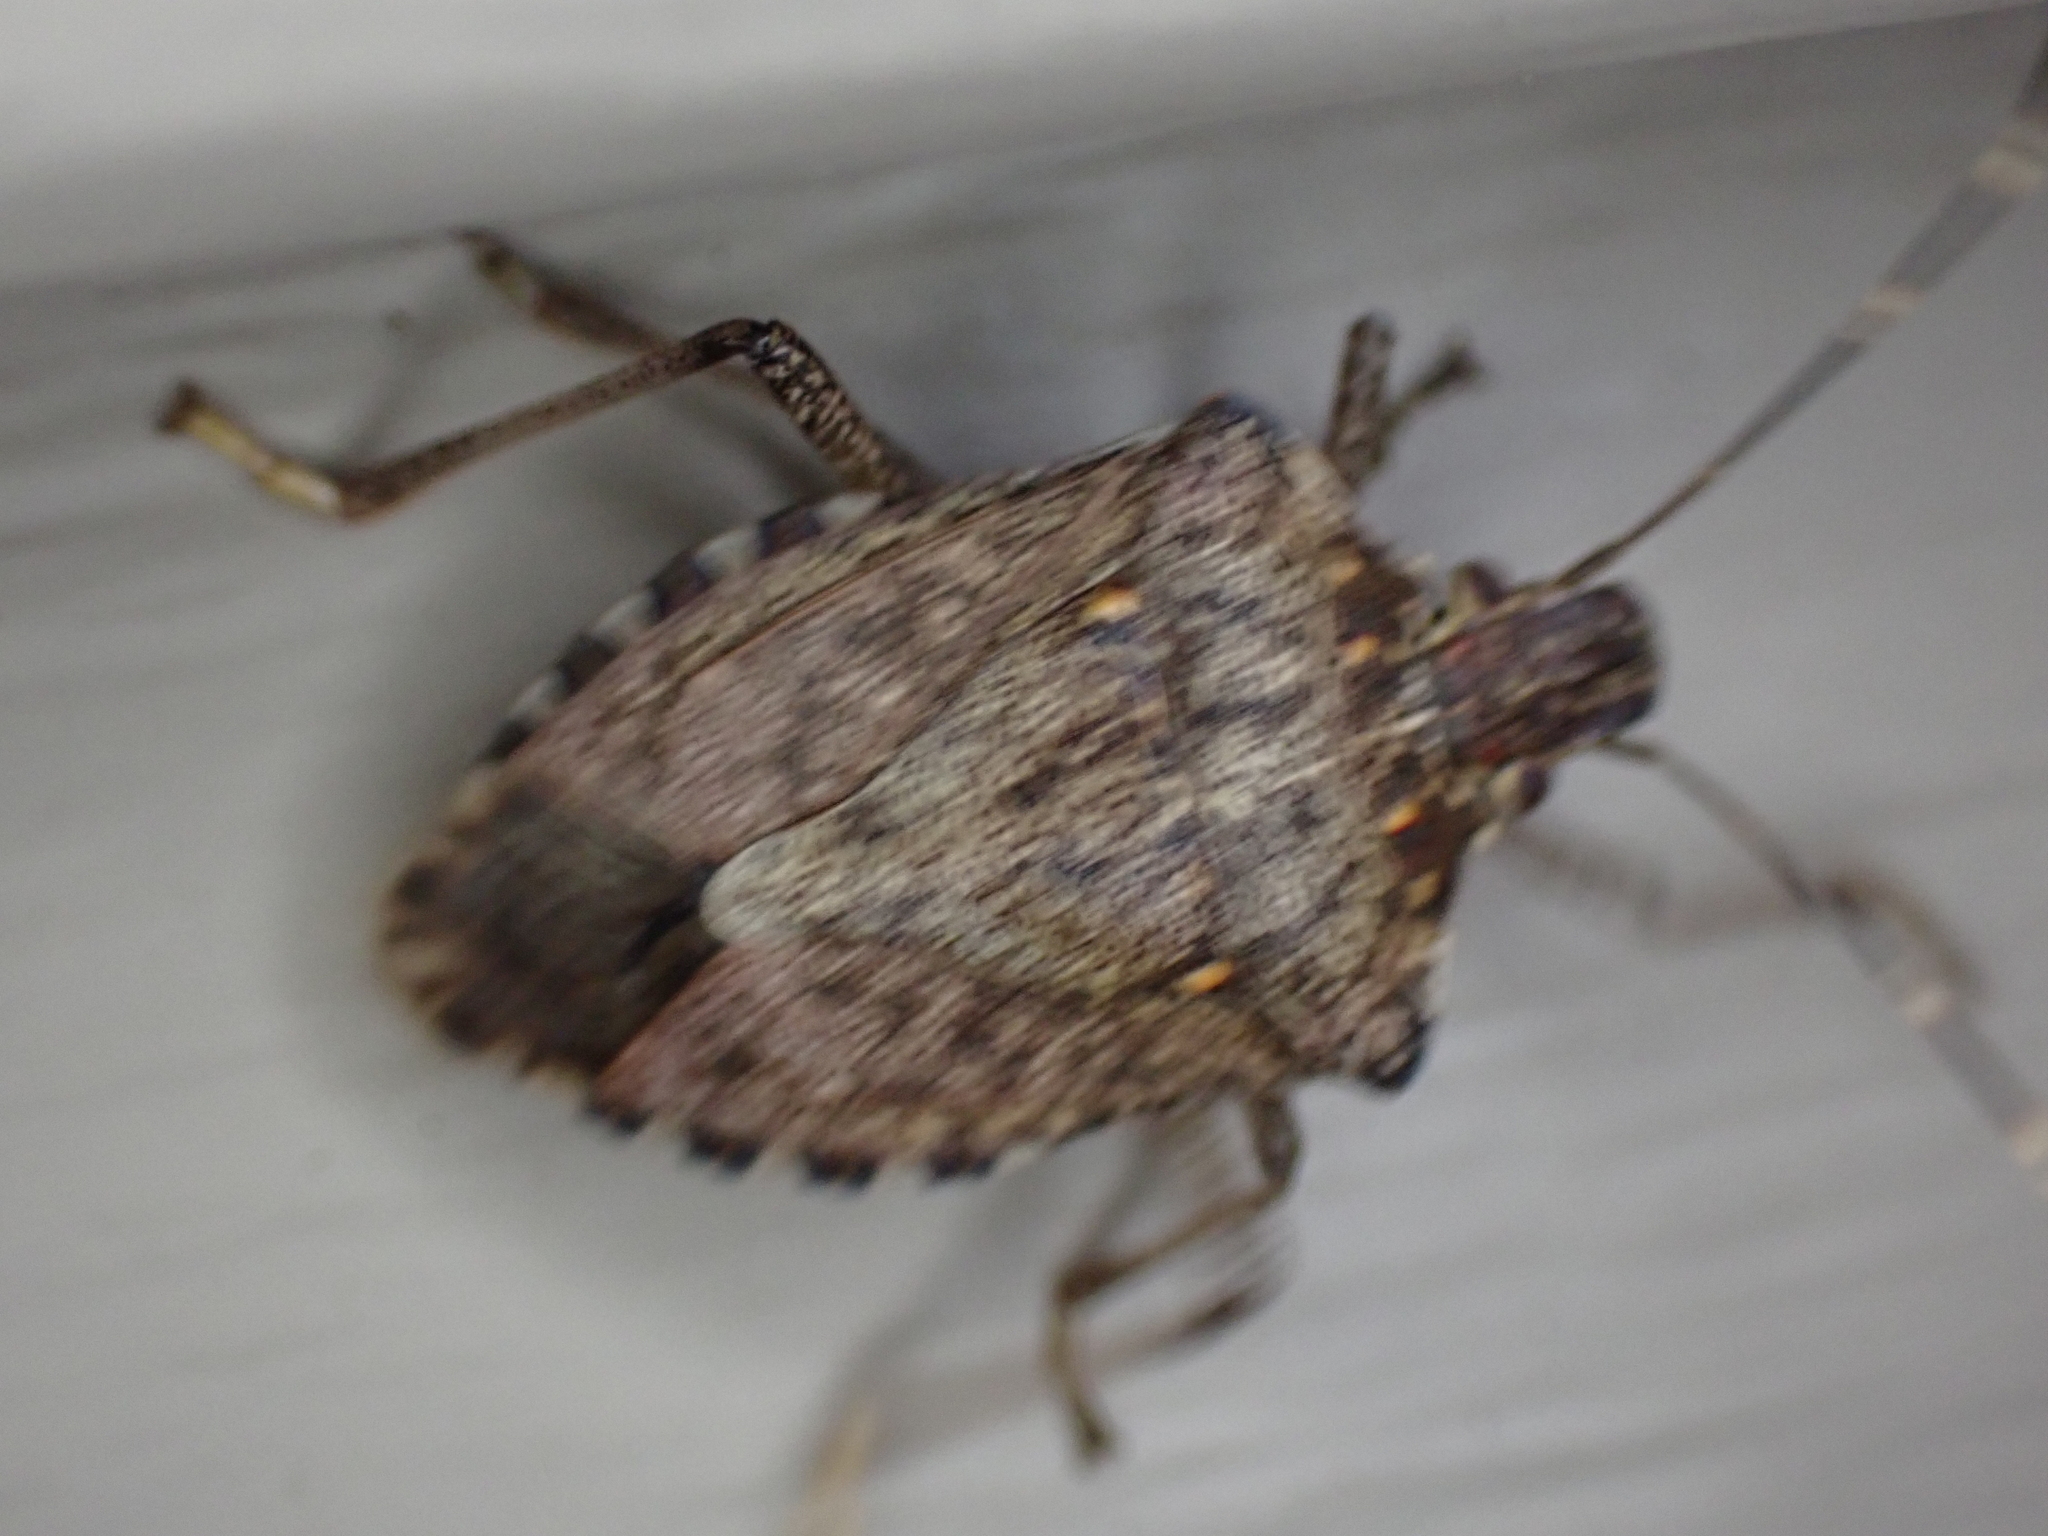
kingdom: Animalia
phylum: Arthropoda
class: Insecta
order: Hemiptera
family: Pentatomidae
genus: Halyomorpha
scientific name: Halyomorpha halys
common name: Brown marmorated stink bug
